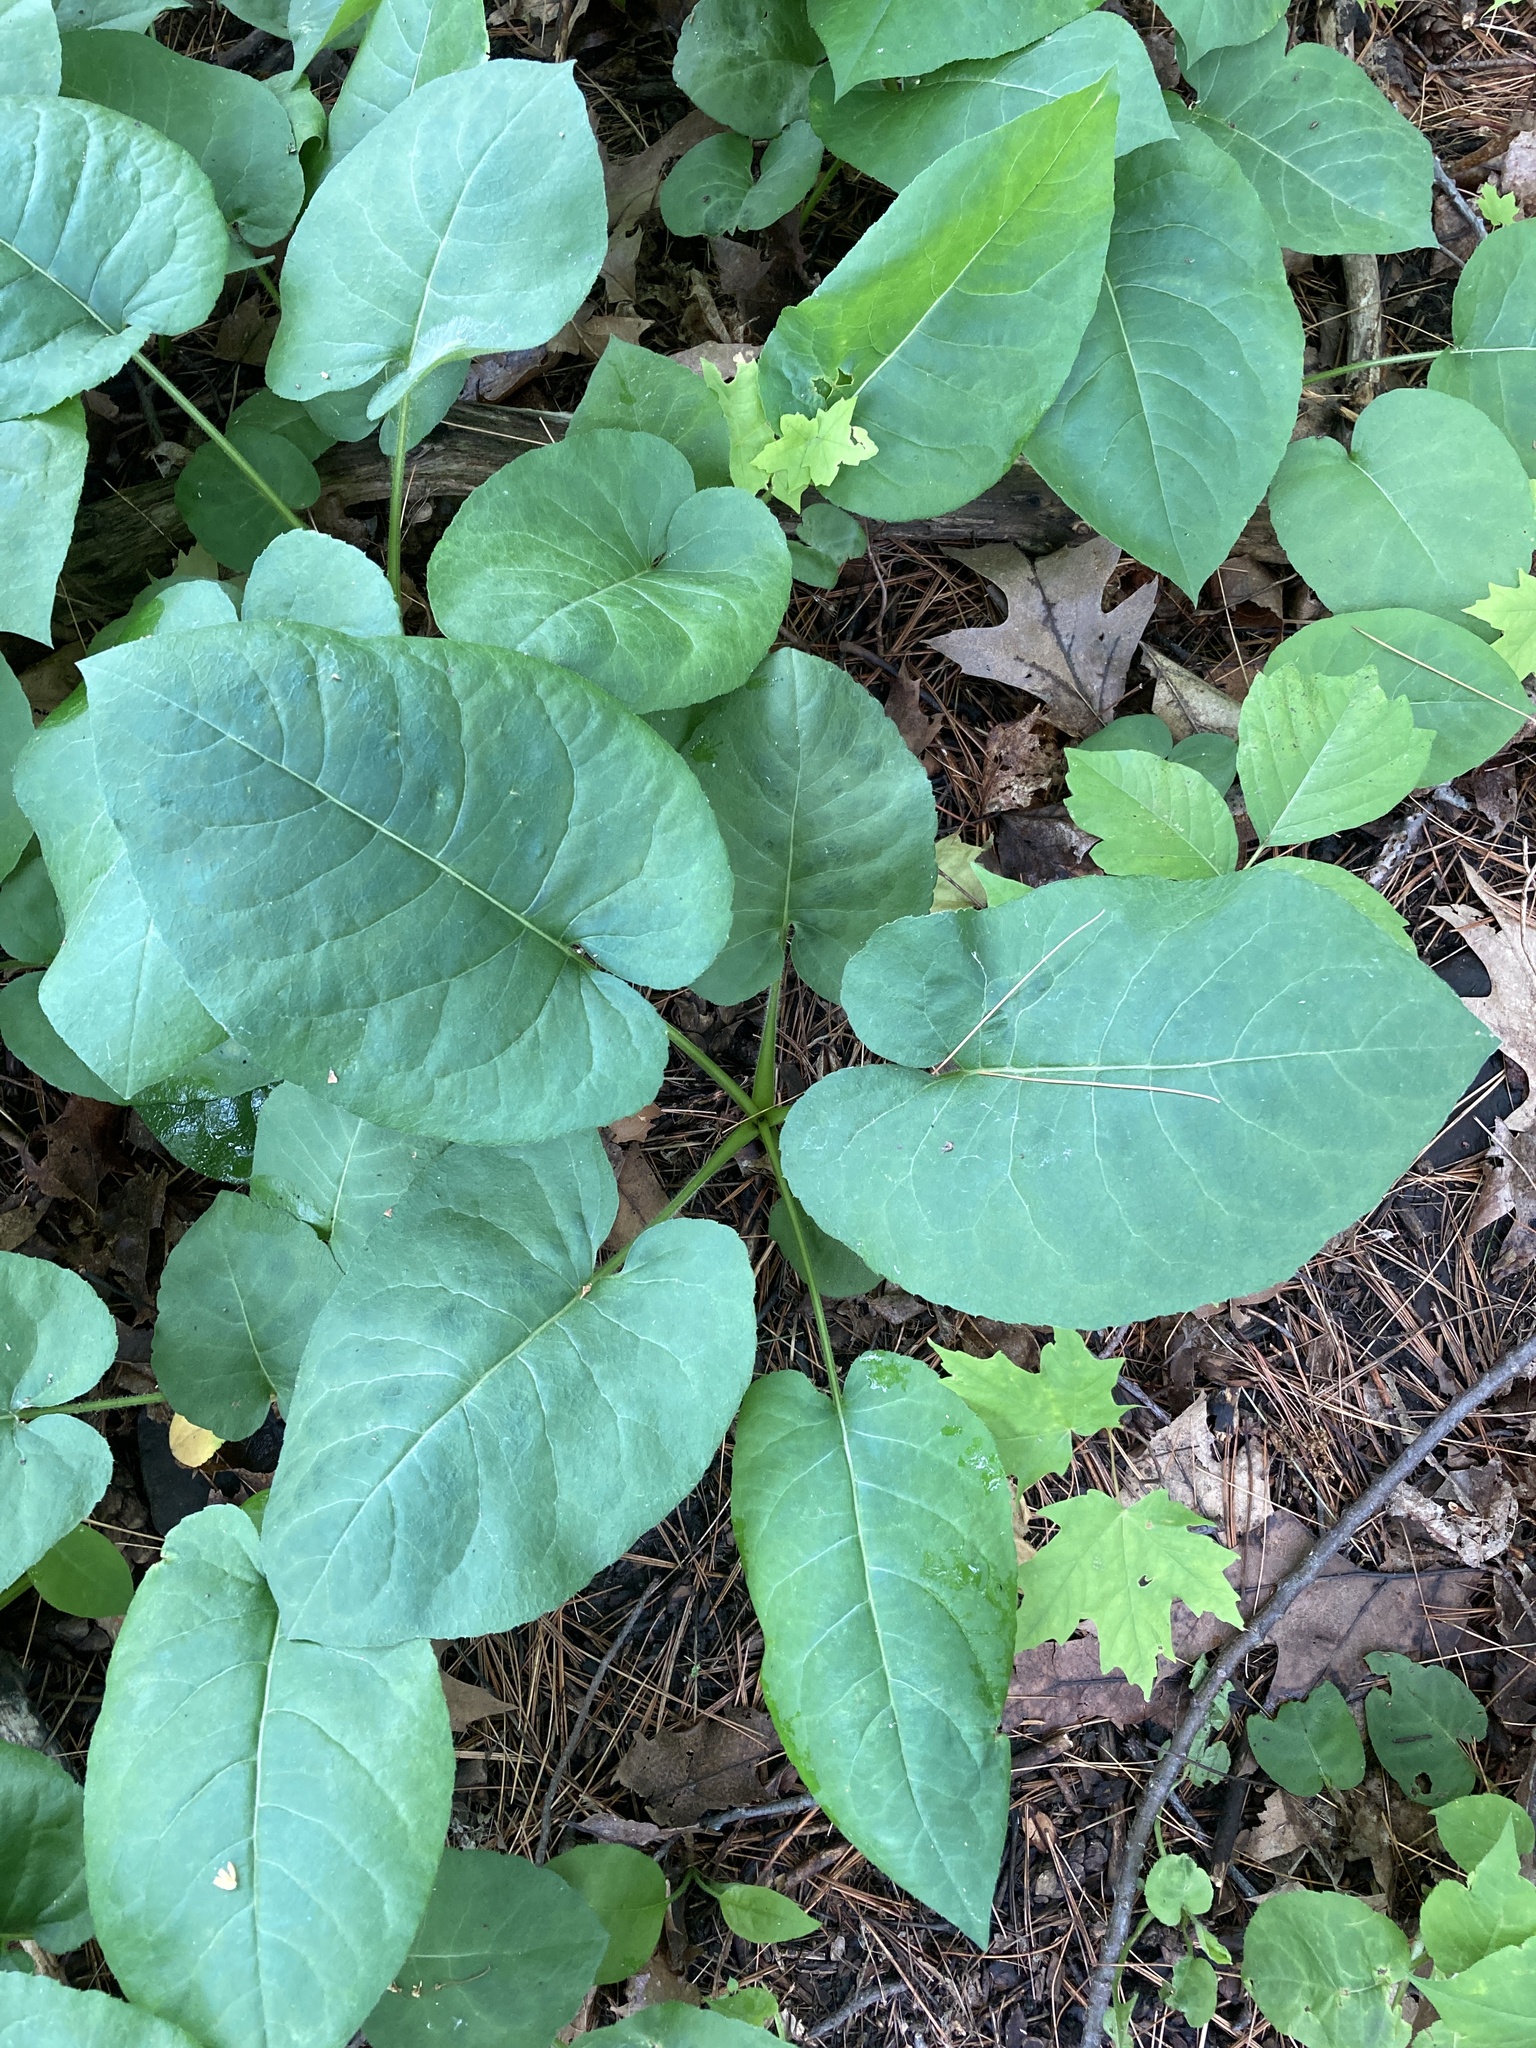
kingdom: Plantae
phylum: Tracheophyta
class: Magnoliopsida
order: Asterales
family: Asteraceae
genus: Eurybia
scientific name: Eurybia macrophylla
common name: Big-leaved aster
